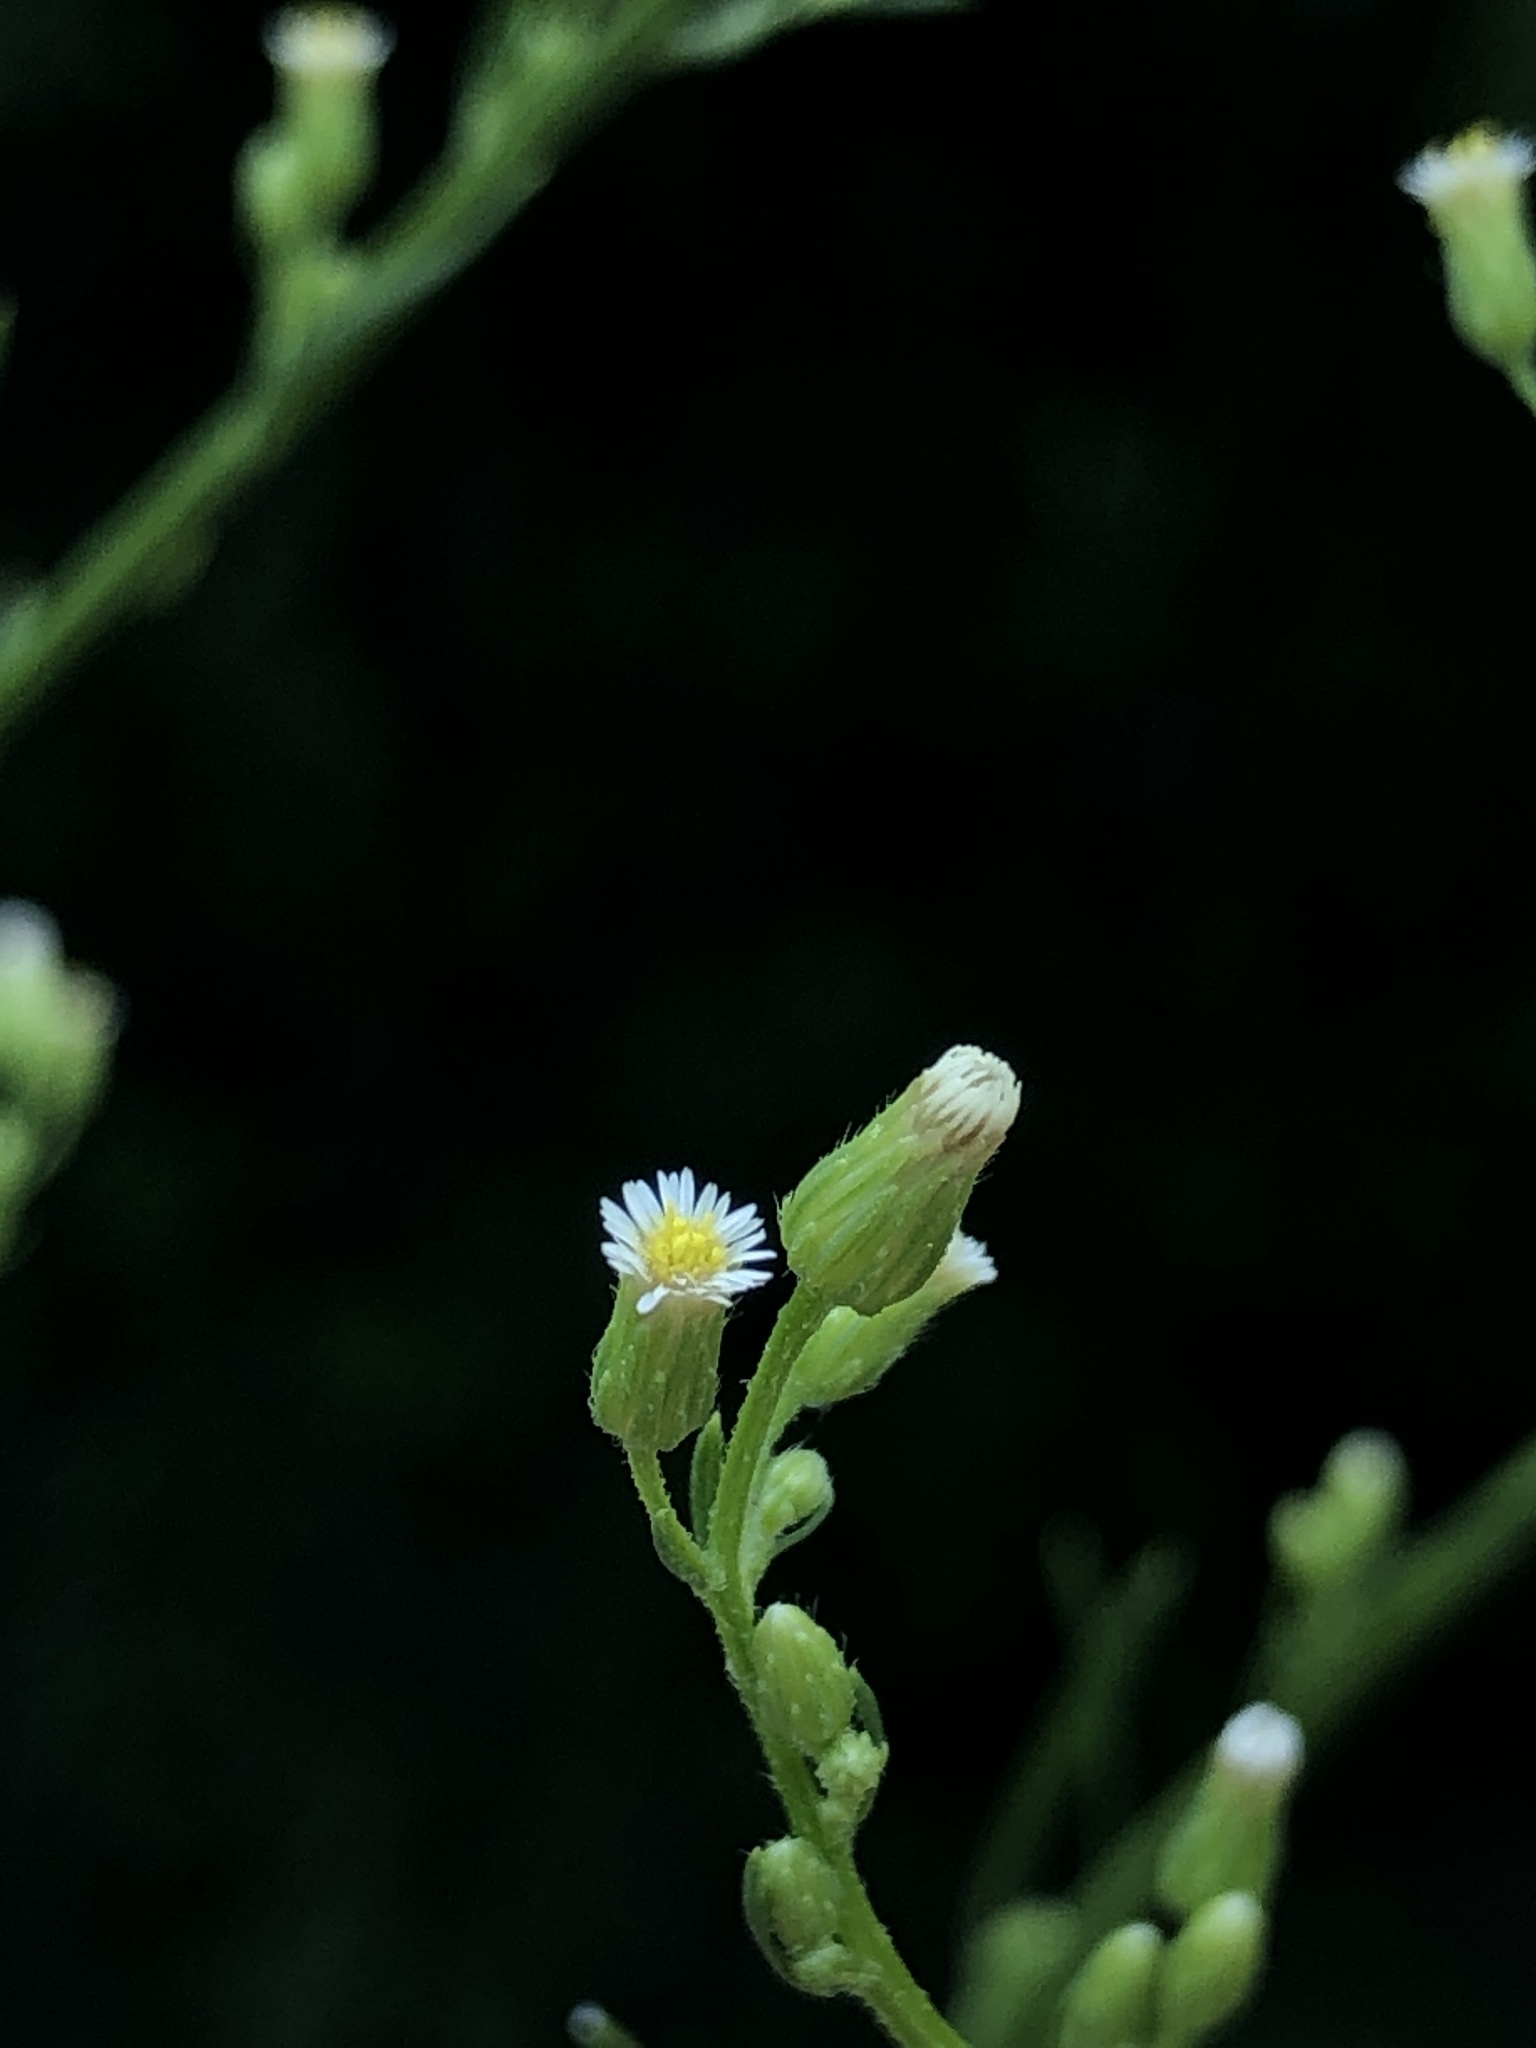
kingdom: Plantae
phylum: Tracheophyta
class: Magnoliopsida
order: Asterales
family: Asteraceae
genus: Erigeron
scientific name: Erigeron canadensis
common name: Canadian fleabane
